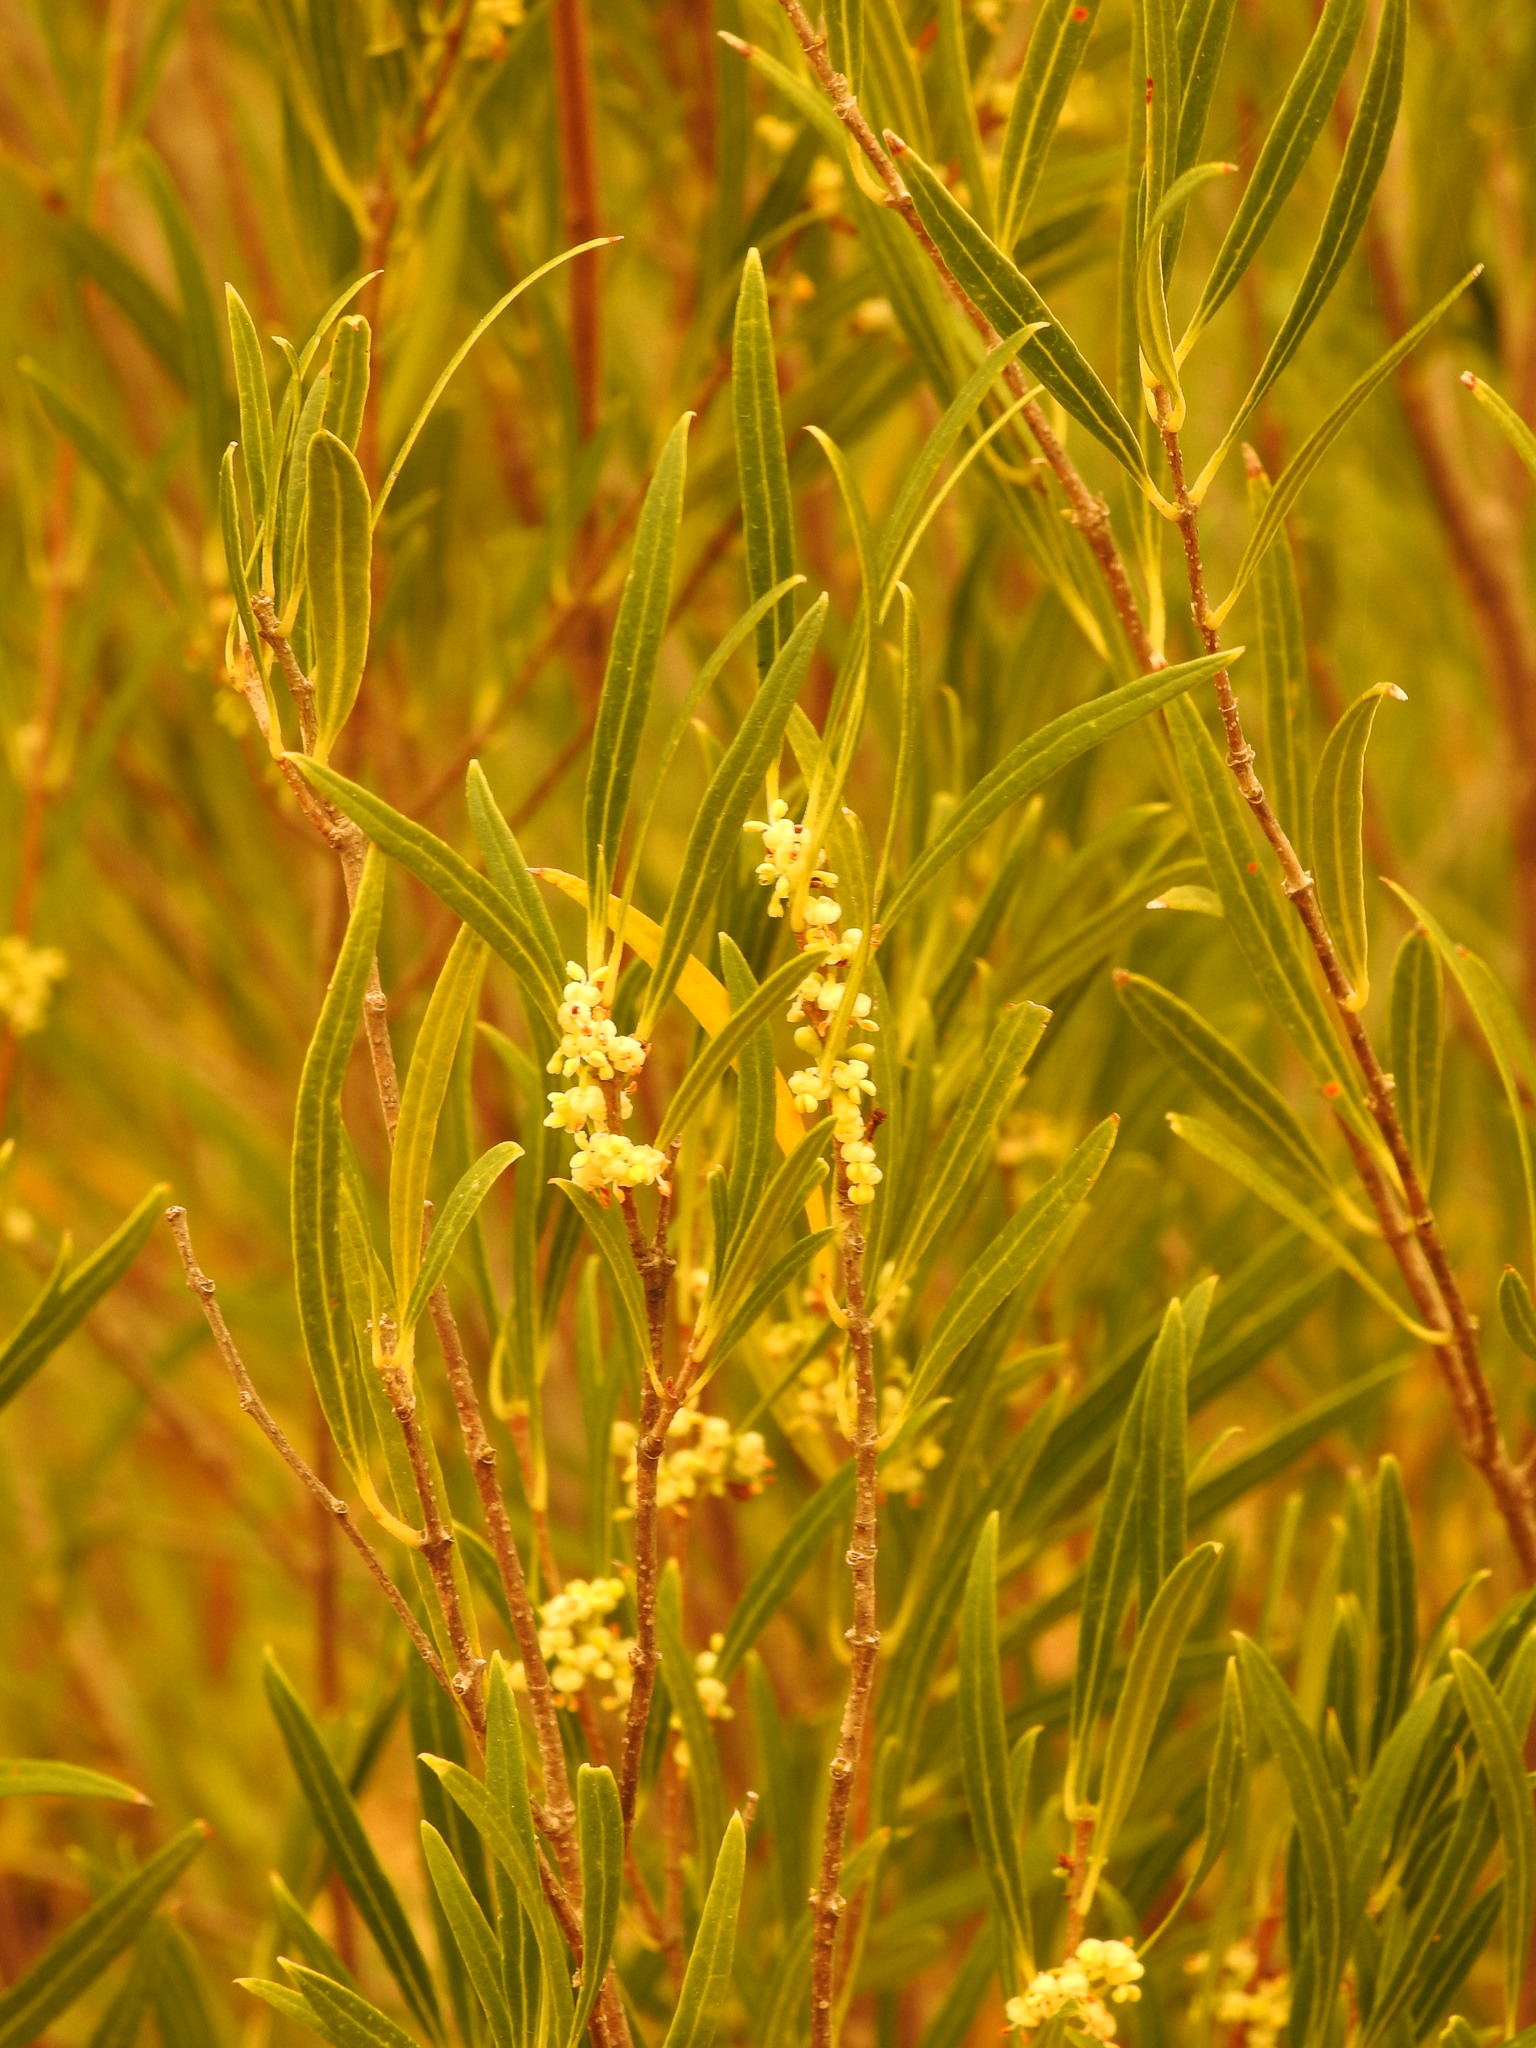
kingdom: Plantae
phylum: Tracheophyta
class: Magnoliopsida
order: Lamiales
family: Oleaceae
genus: Phillyrea
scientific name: Phillyrea angustifolia
